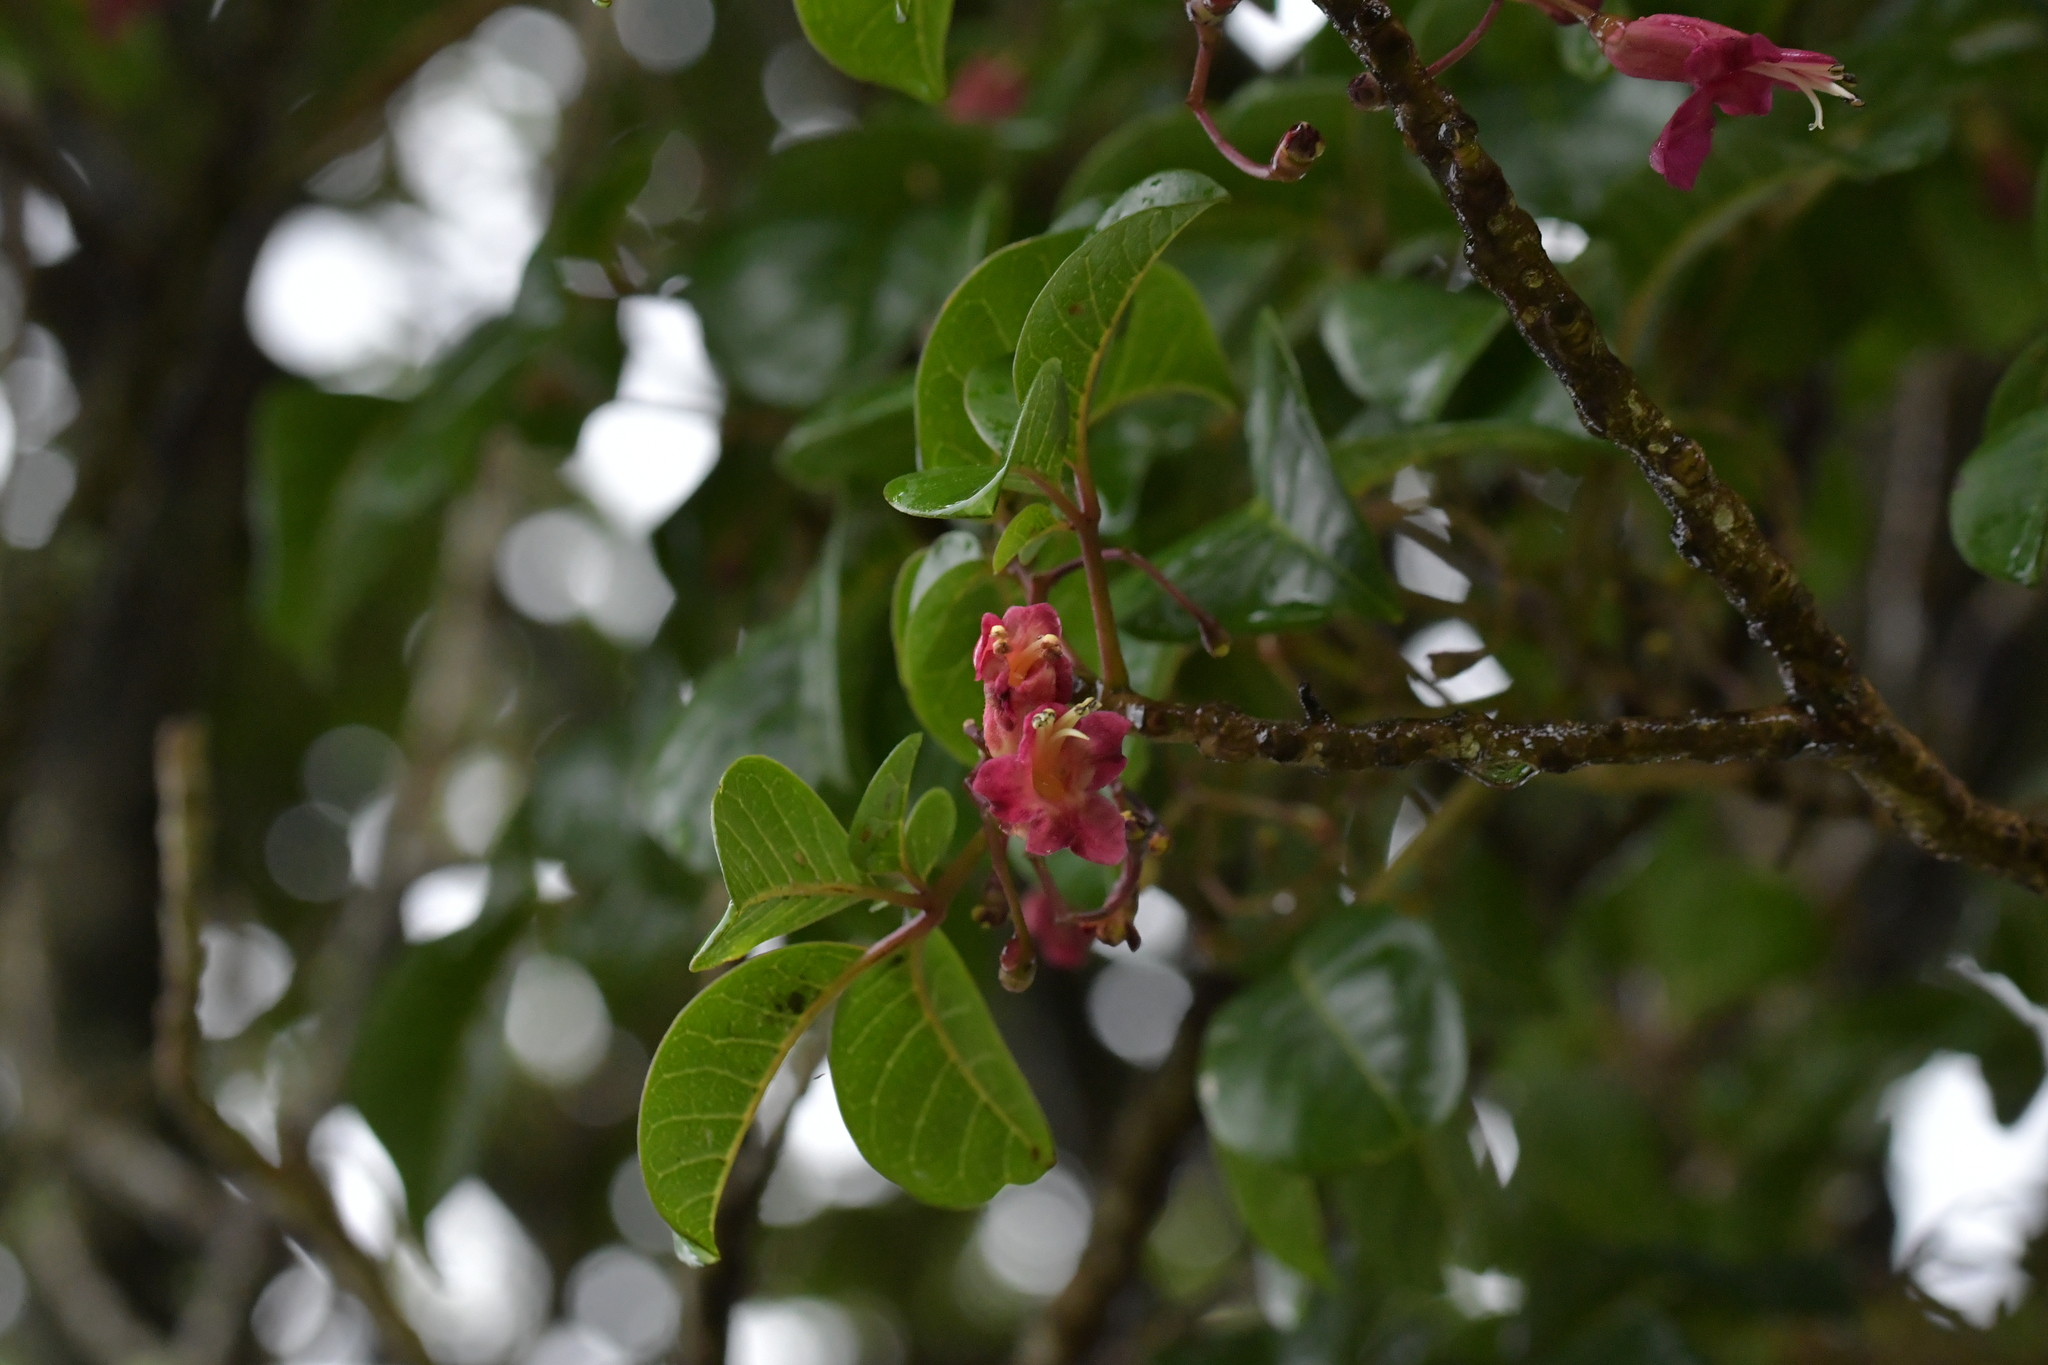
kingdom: Plantae
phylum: Tracheophyta
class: Magnoliopsida
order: Lamiales
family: Lamiaceae
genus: Vitex
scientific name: Vitex lucens
